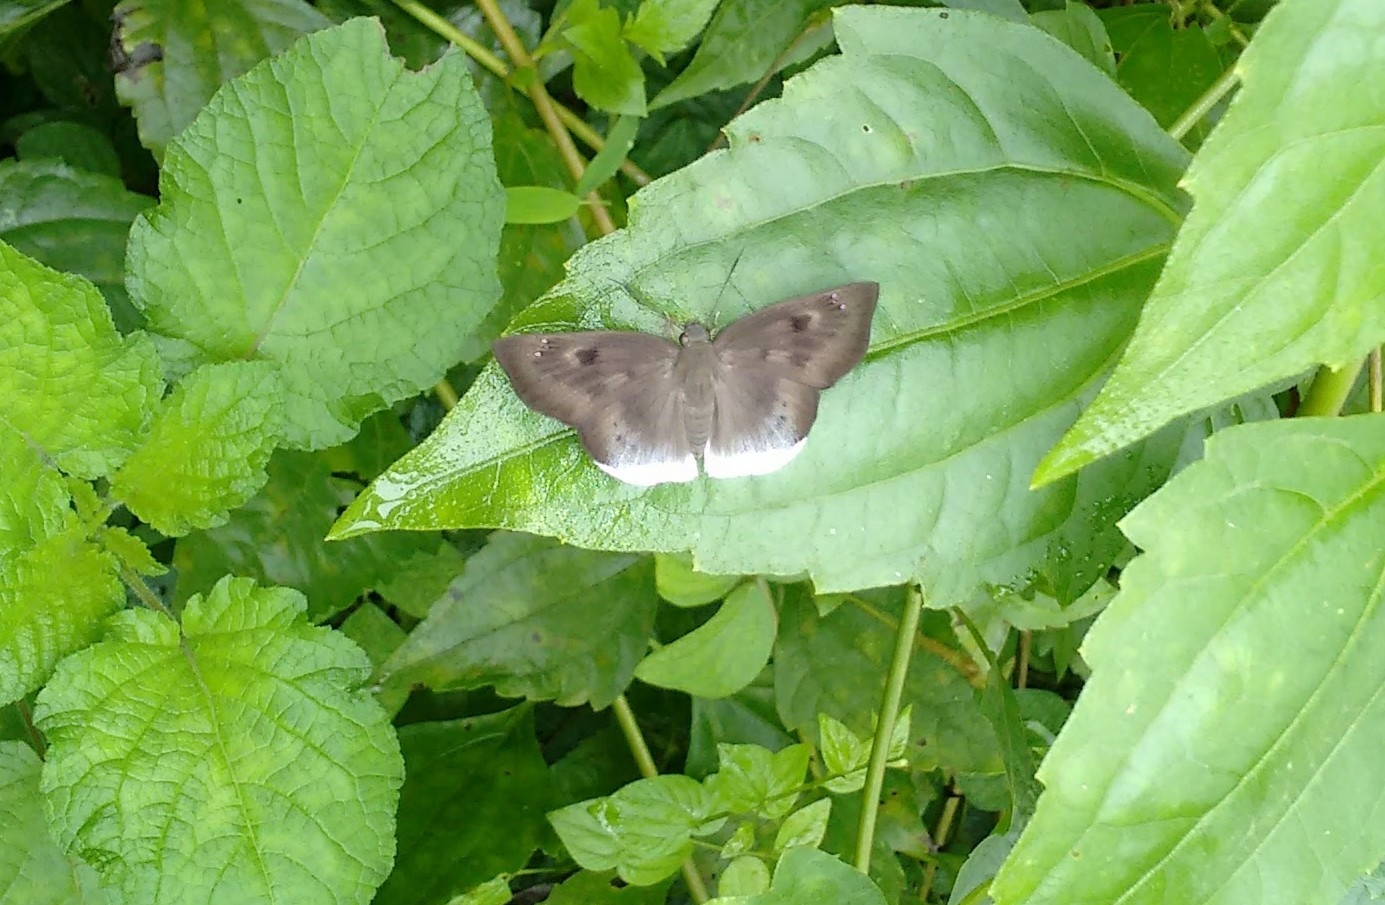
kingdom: Animalia
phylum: Arthropoda
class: Insecta
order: Lepidoptera
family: Hesperiidae
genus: Tagiades
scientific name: Tagiades japetus
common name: Pied flat
